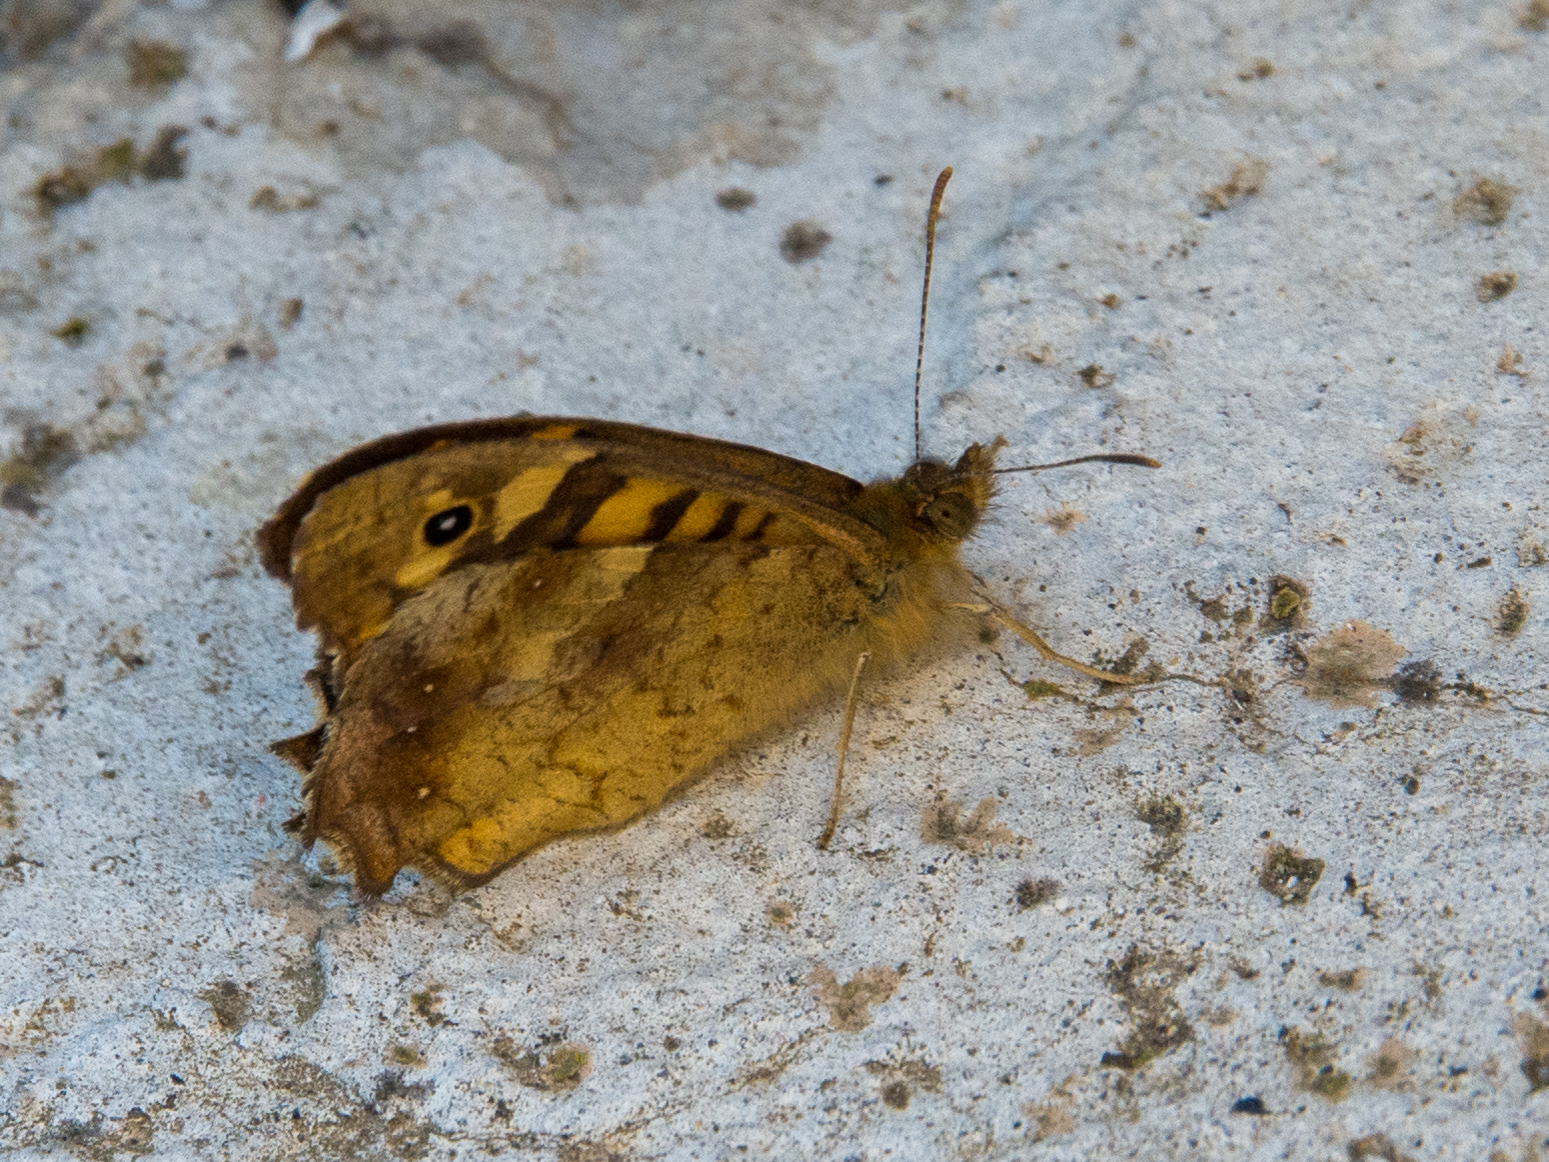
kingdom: Animalia
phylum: Arthropoda
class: Insecta
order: Lepidoptera
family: Nymphalidae
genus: Pararge
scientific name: Pararge aegeria
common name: Speckled wood
